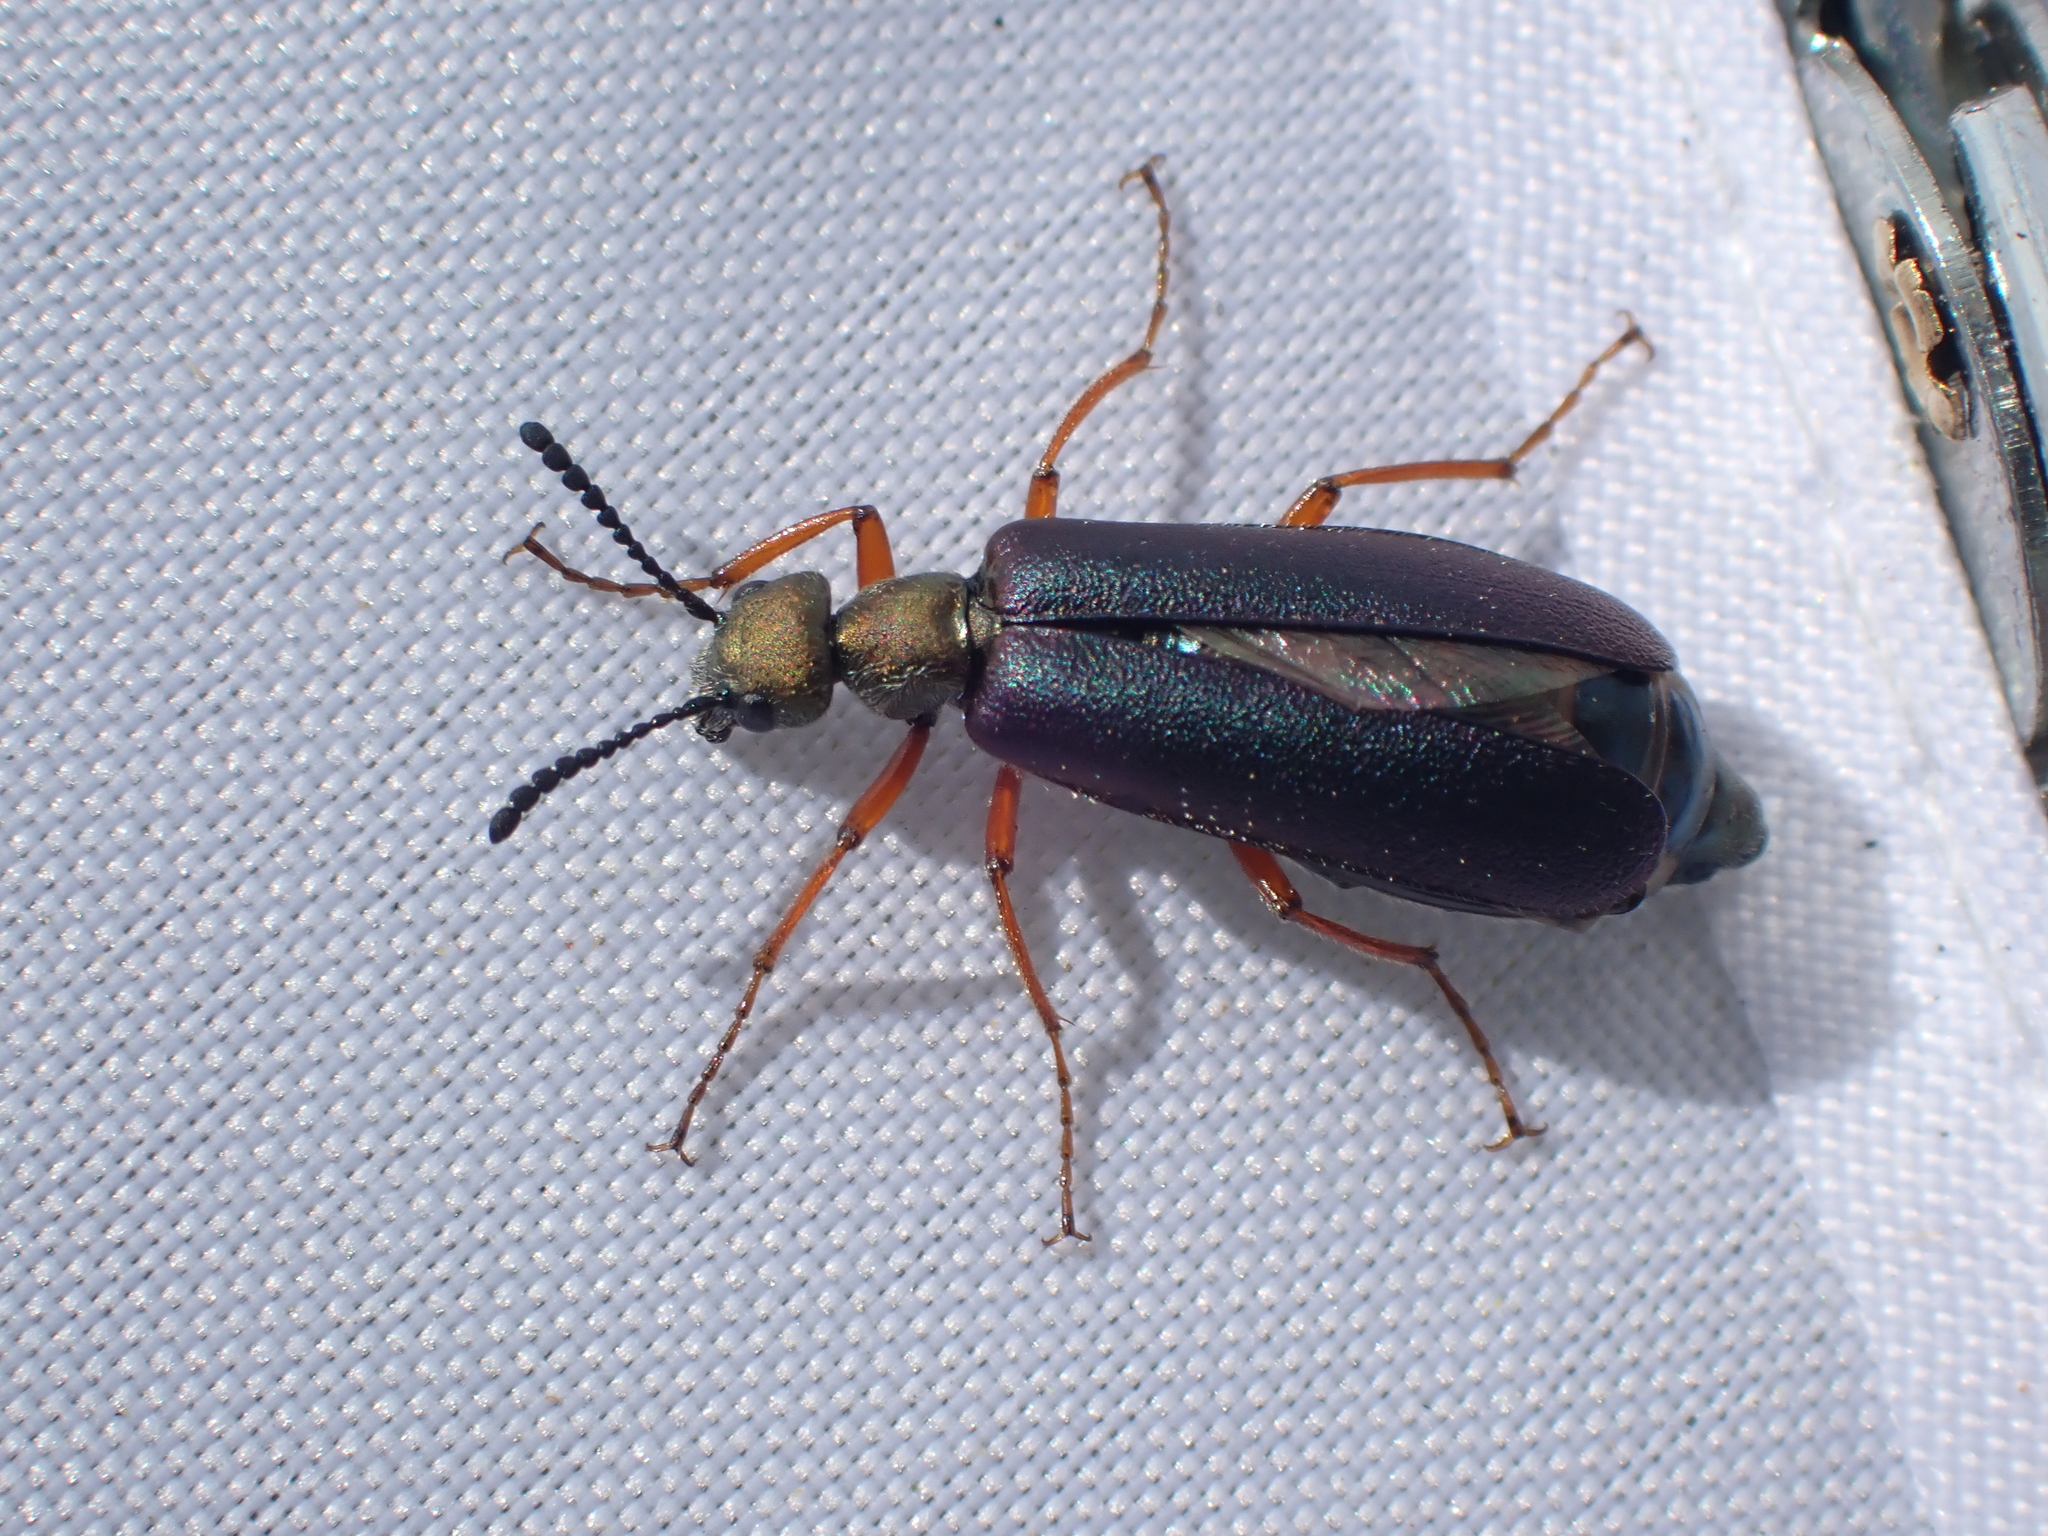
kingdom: Animalia
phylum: Arthropoda
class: Insecta
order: Coleoptera
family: Meloidae
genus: Lytta
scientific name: Lytta aenea
